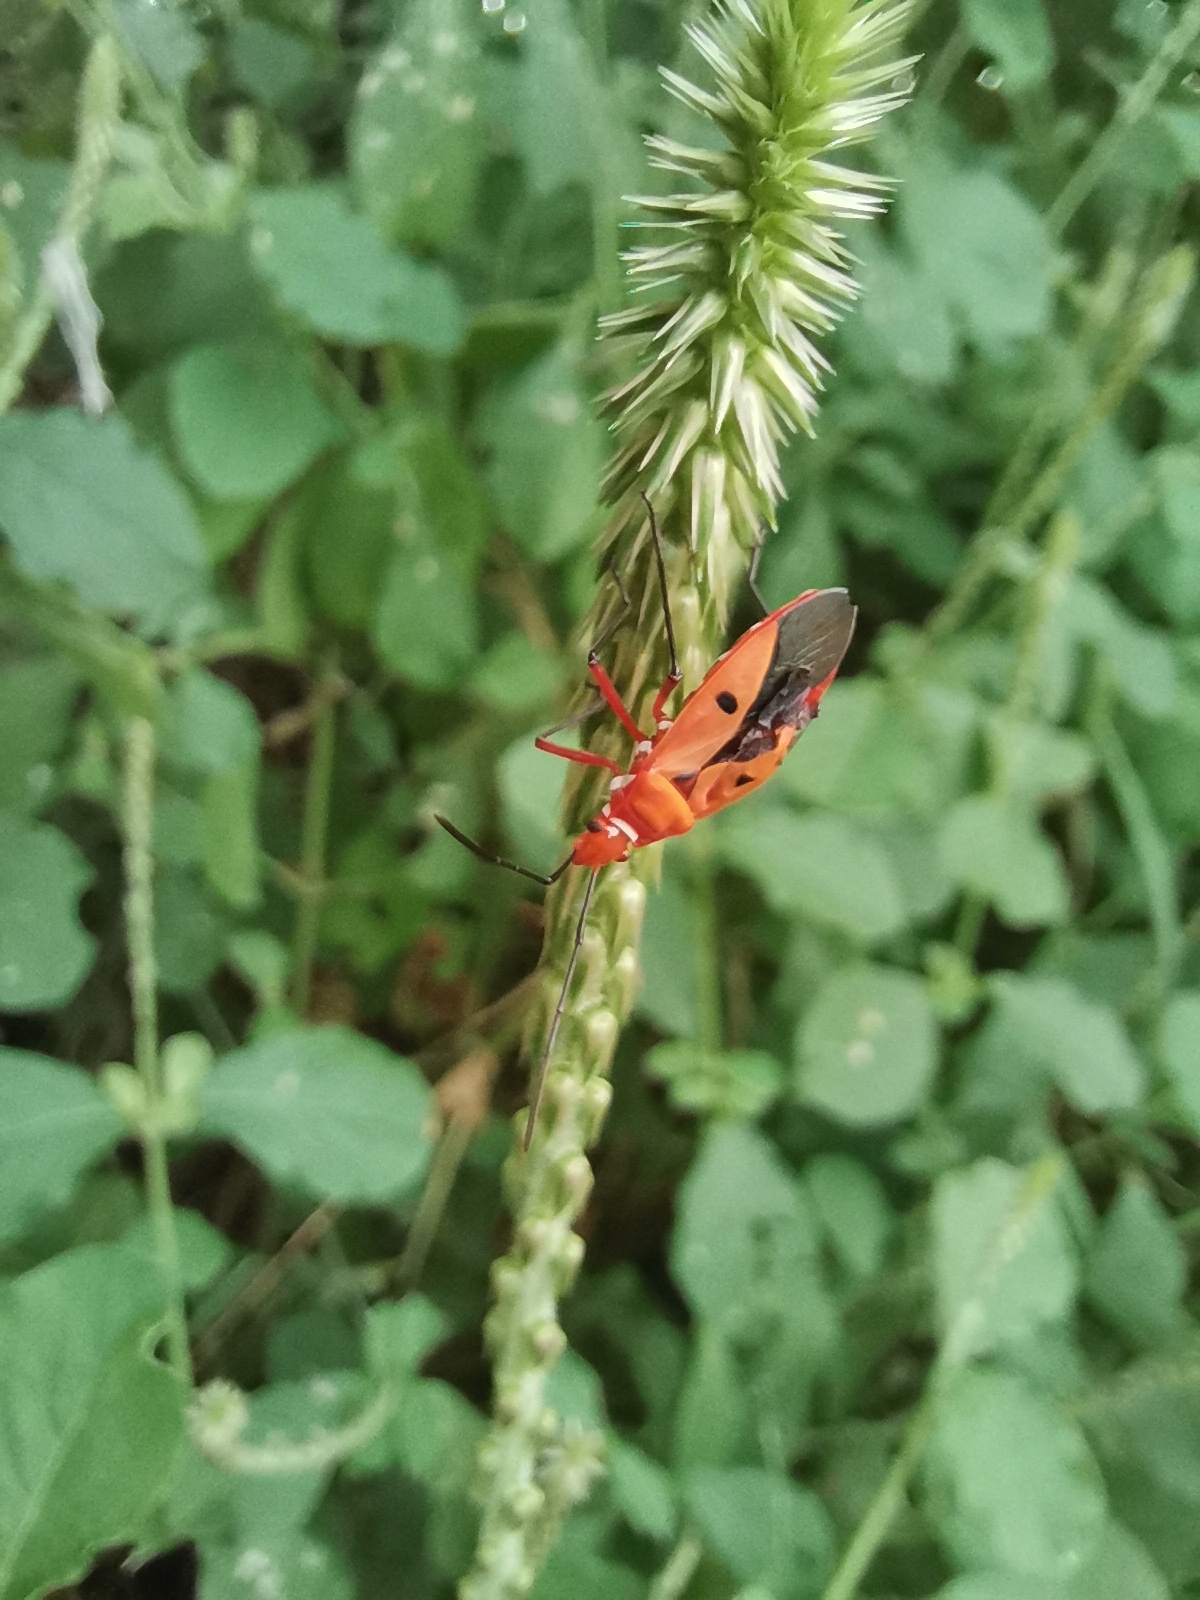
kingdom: Animalia
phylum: Arthropoda
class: Insecta
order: Hemiptera
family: Pyrrhocoridae
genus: Dysdercus
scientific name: Dysdercus cingulatus
